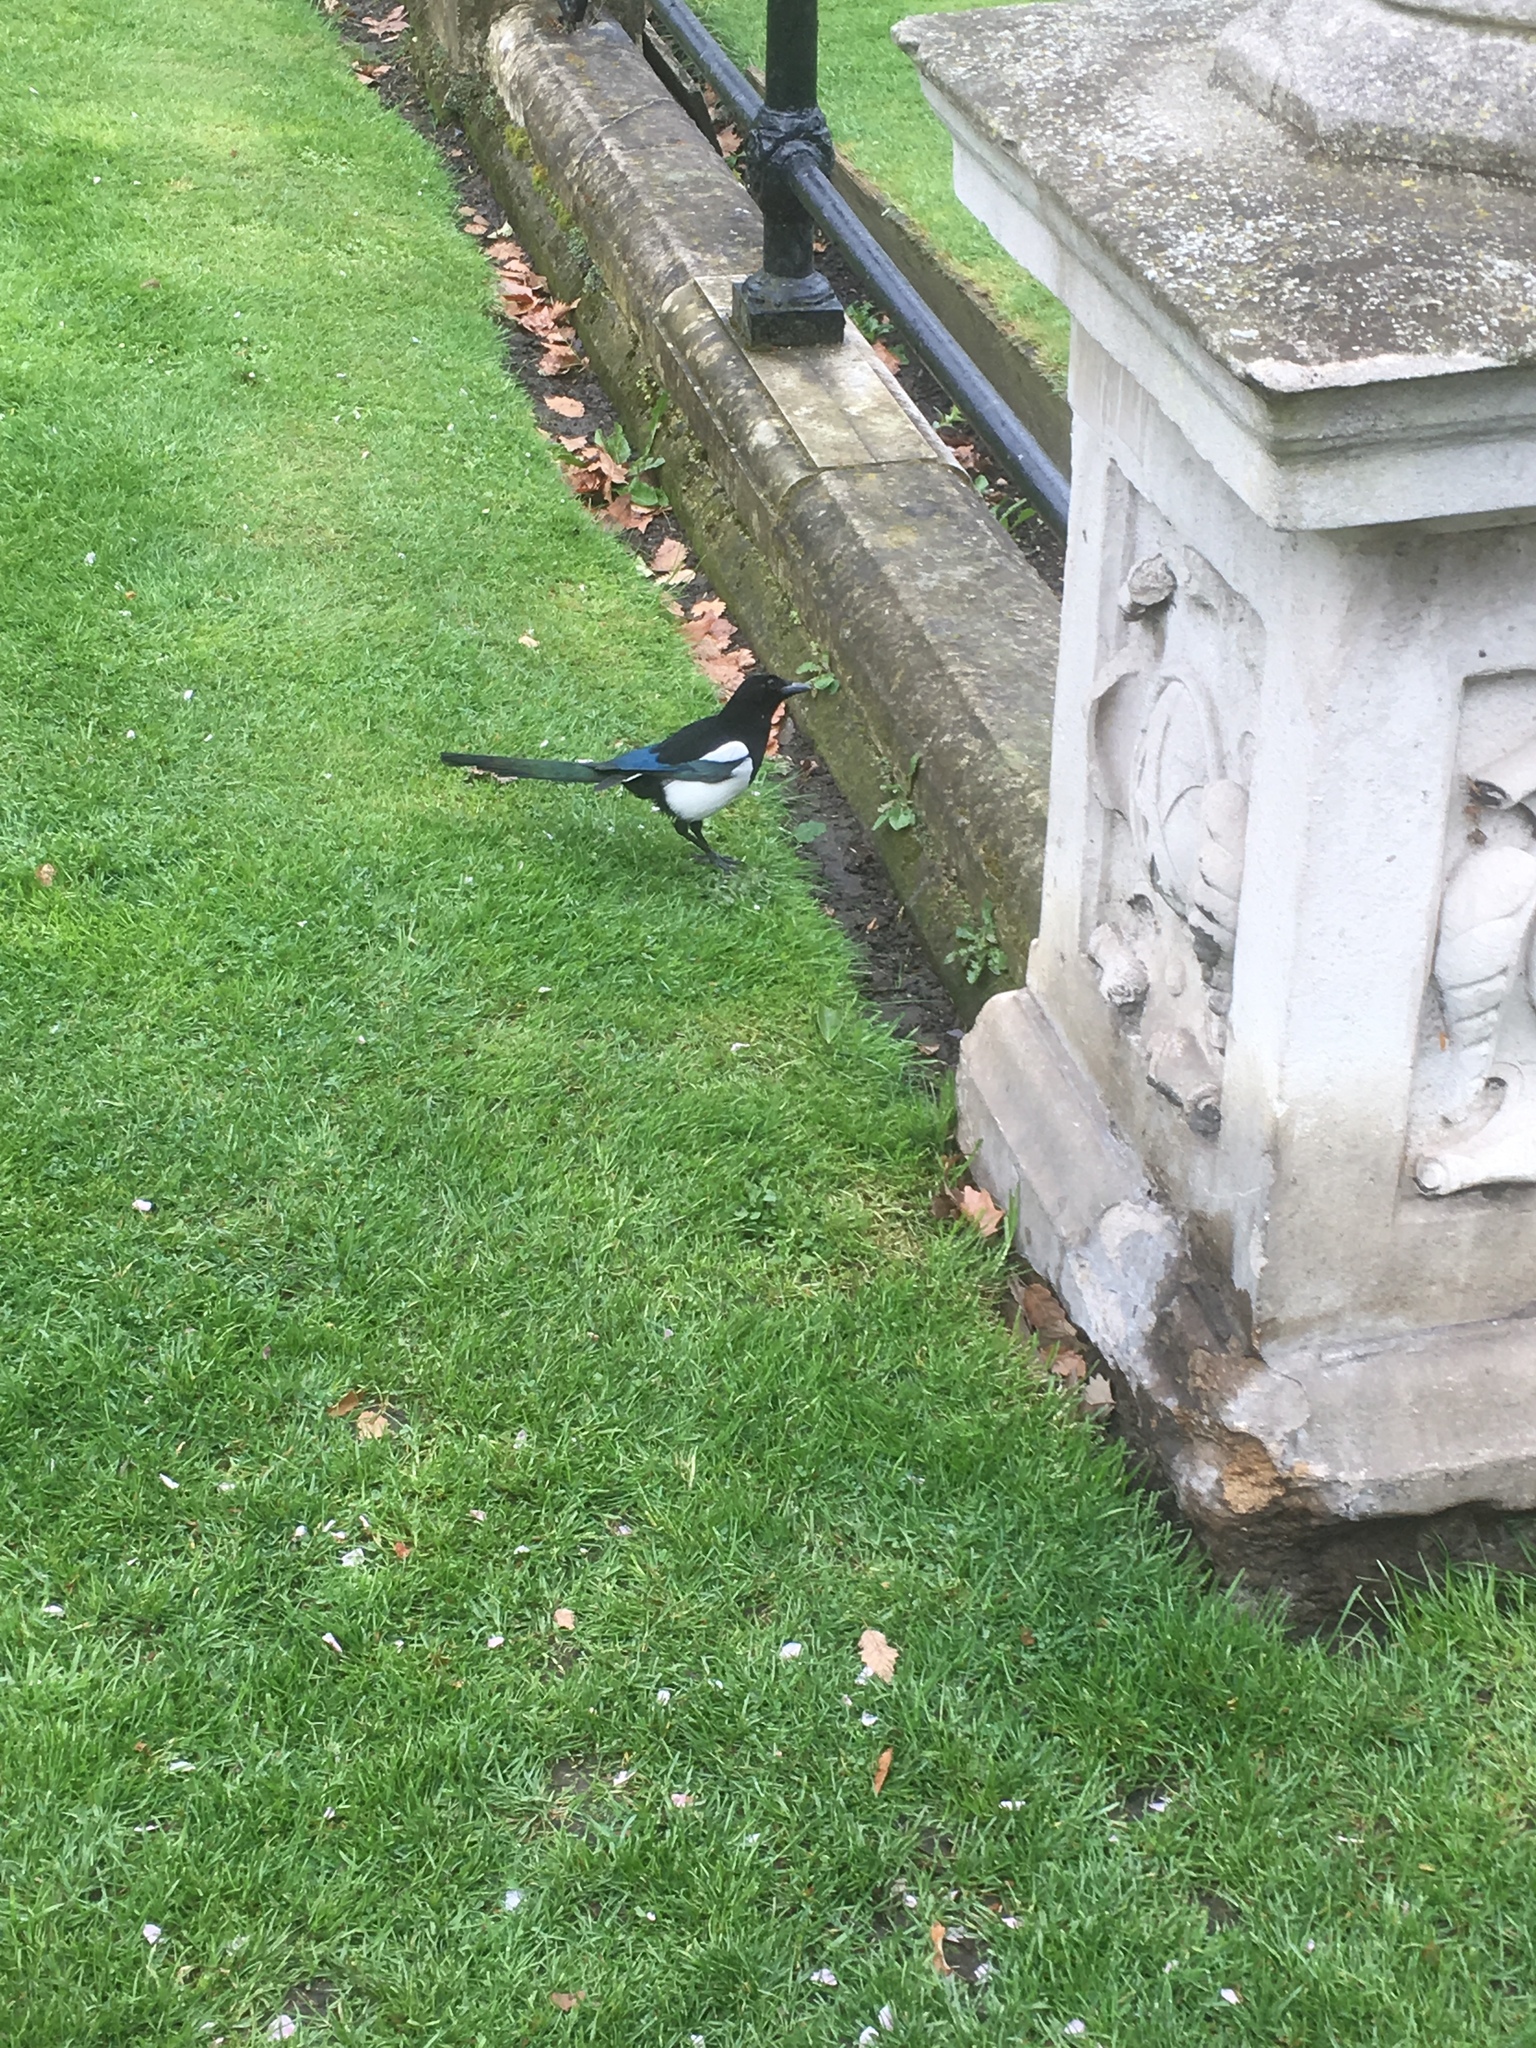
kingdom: Animalia
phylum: Chordata
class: Aves
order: Passeriformes
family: Corvidae
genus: Pica
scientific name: Pica pica
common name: Eurasian magpie
